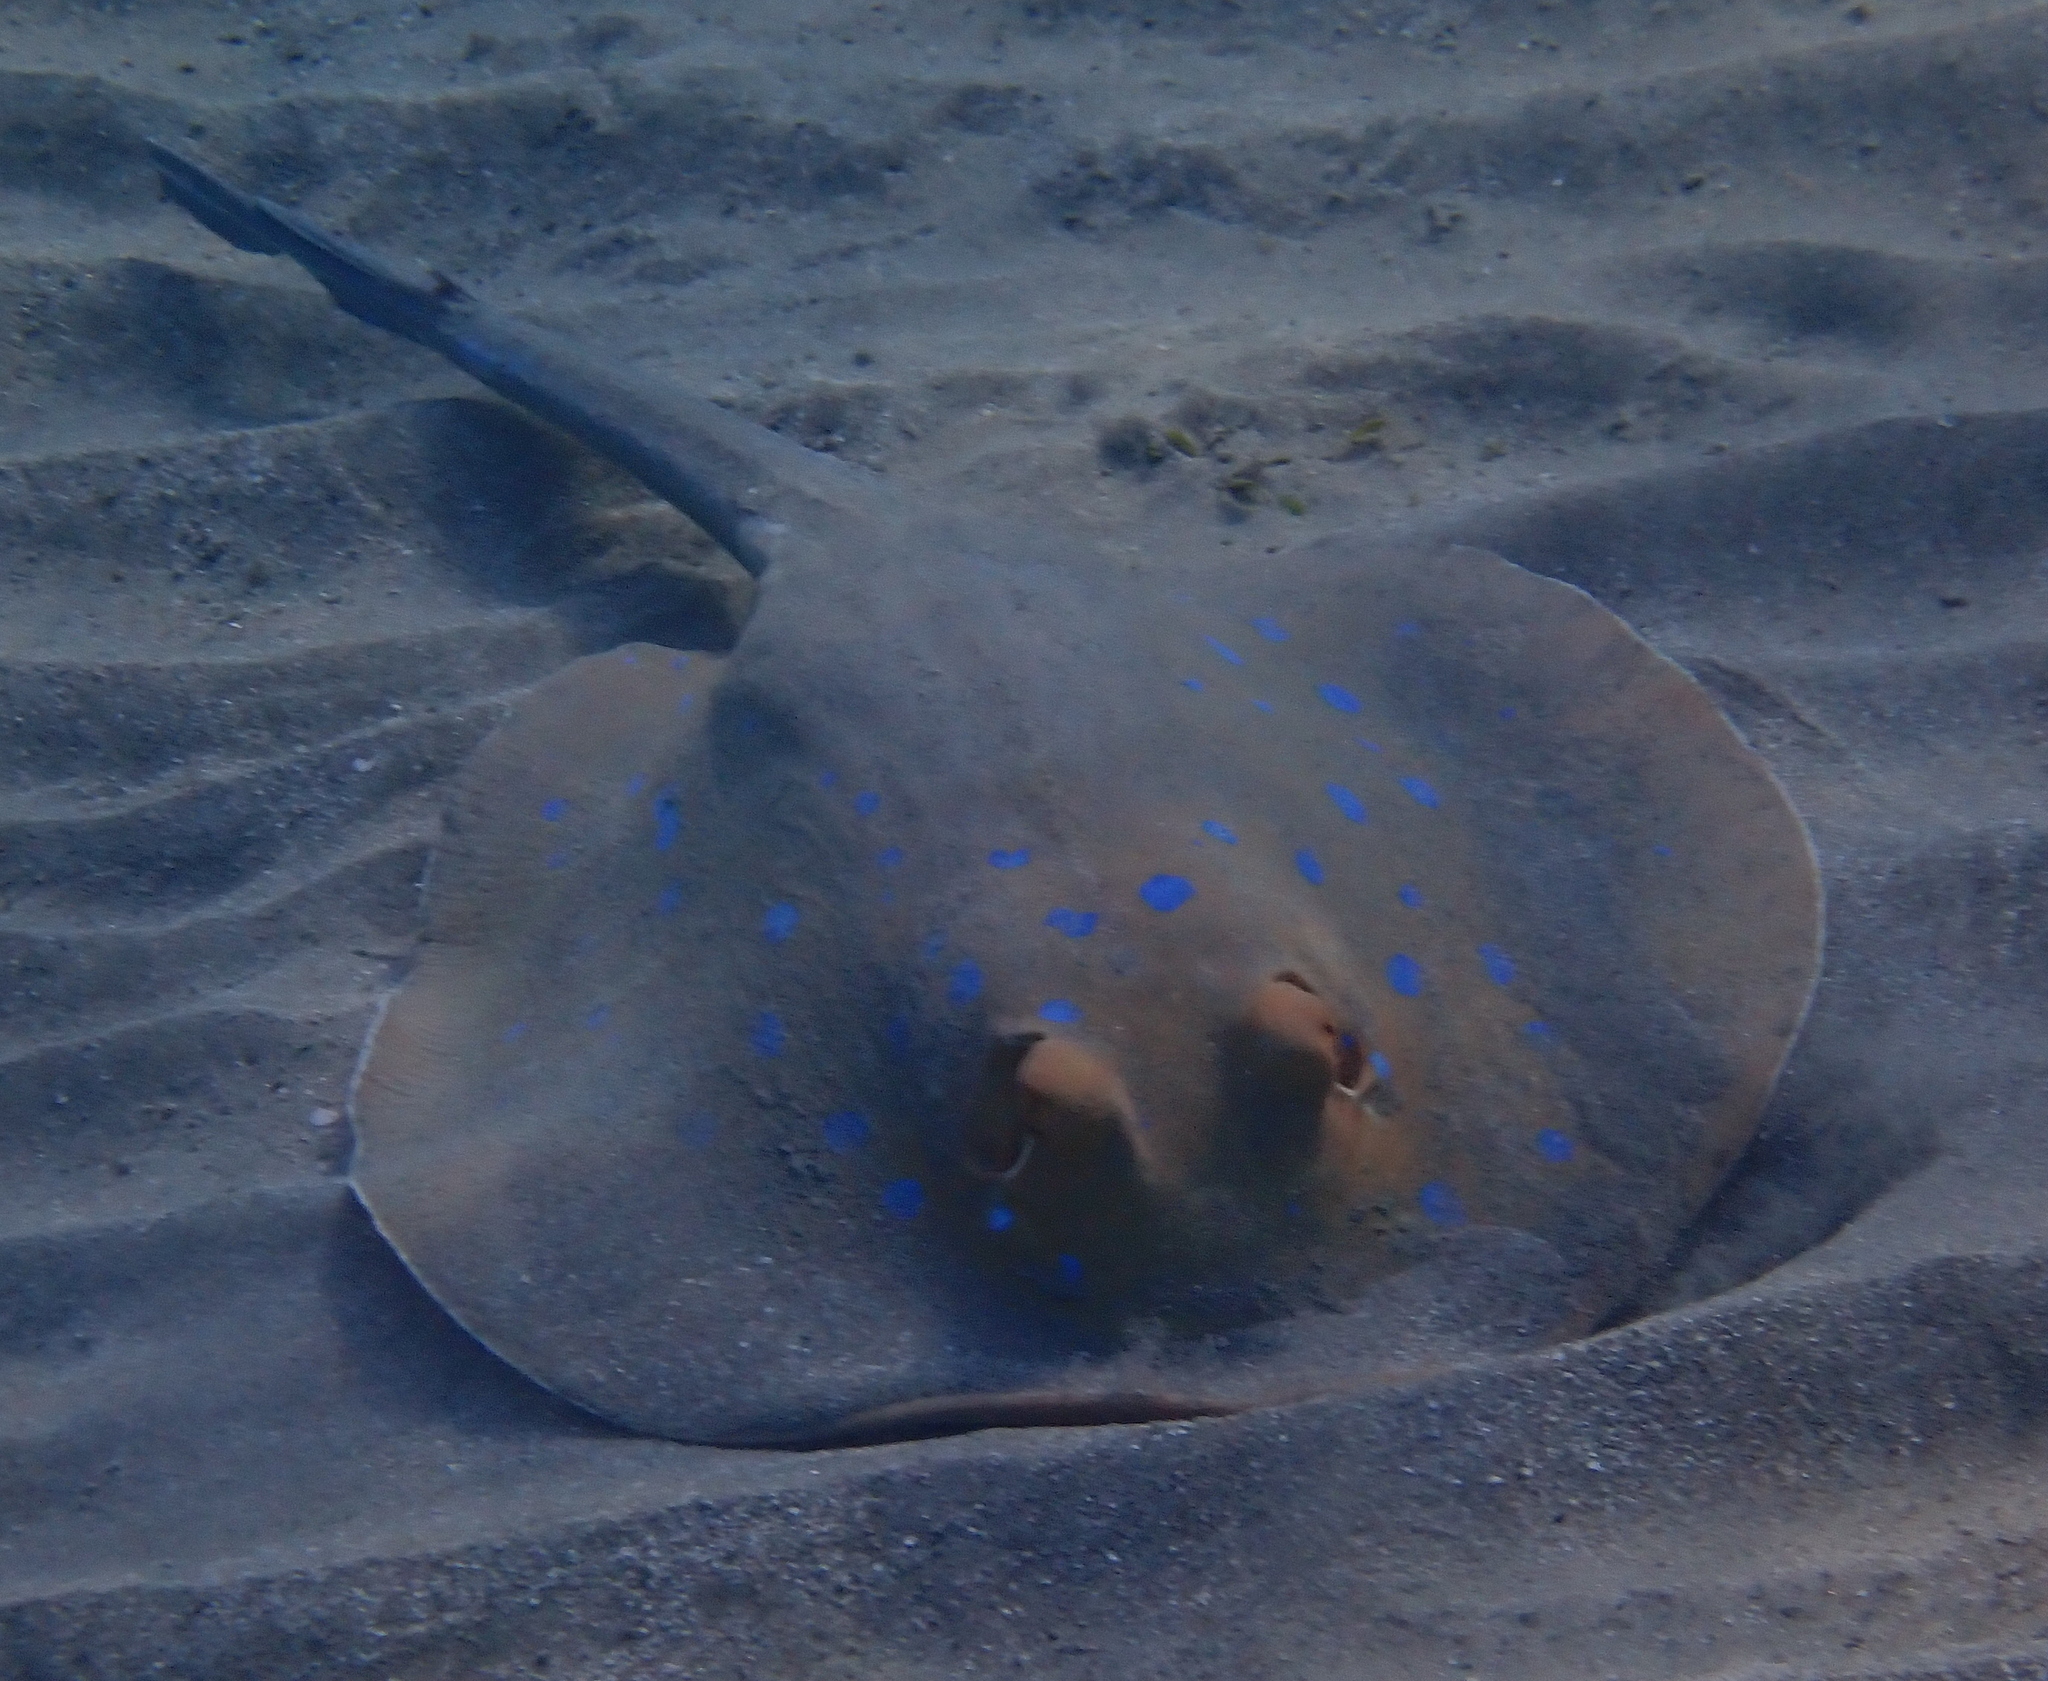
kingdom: Animalia
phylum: Chordata
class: Elasmobranchii
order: Myliobatiformes
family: Dasyatidae
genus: Taeniura
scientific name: Taeniura lymma
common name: Bluespotted ribbontail ray
